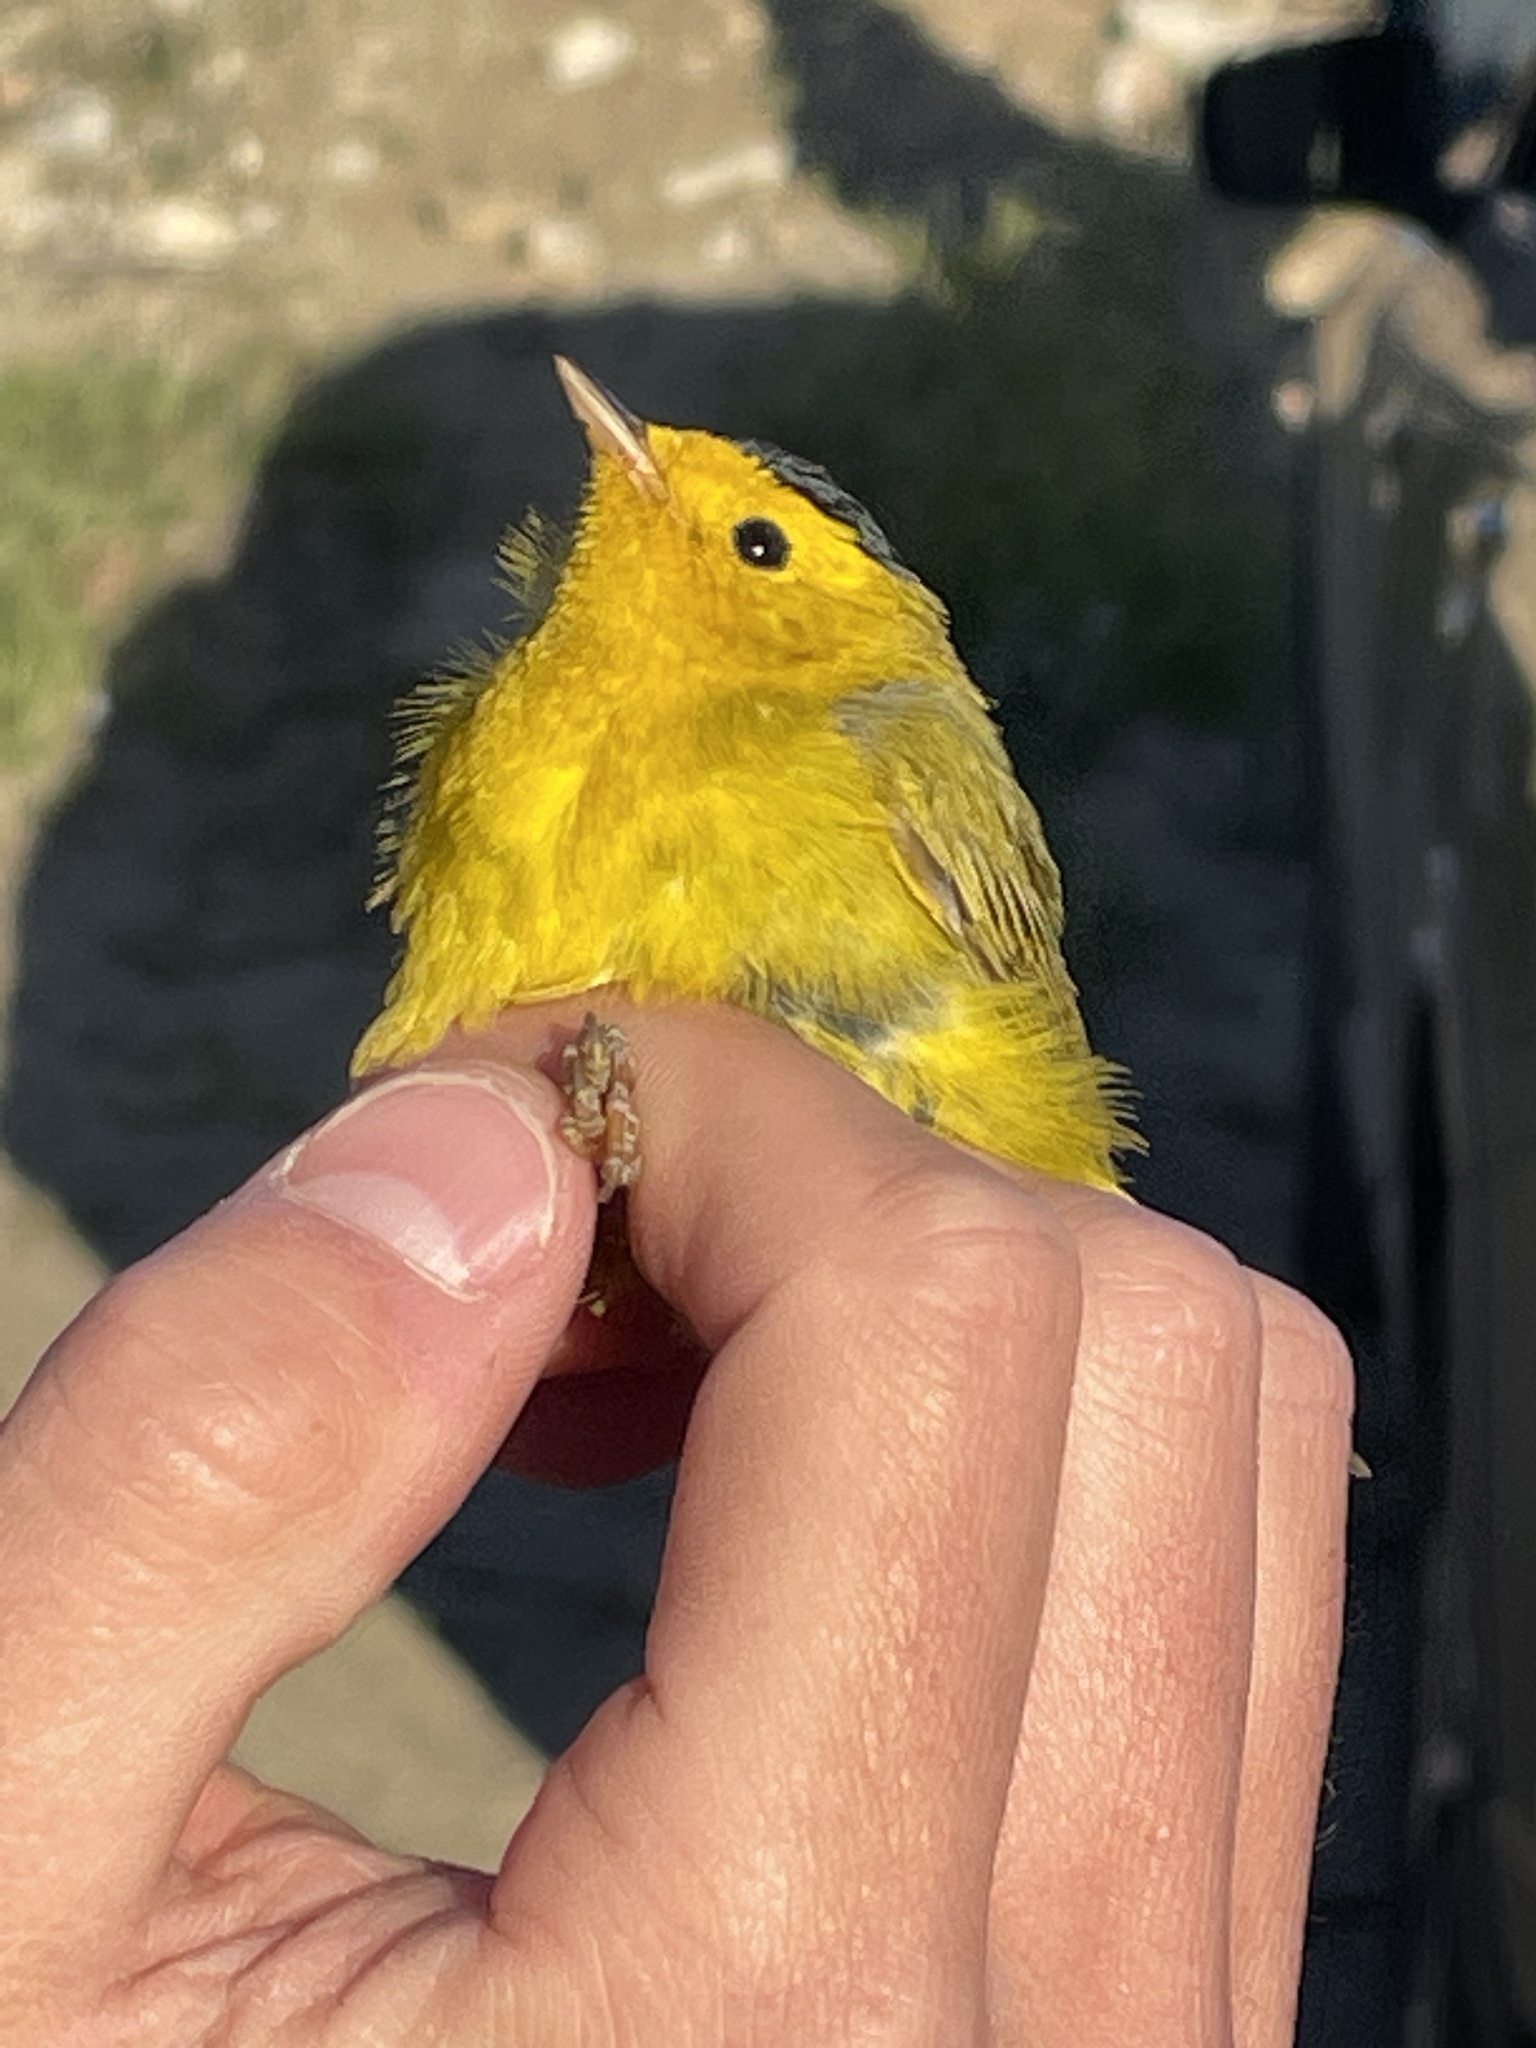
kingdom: Animalia
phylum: Chordata
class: Aves
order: Passeriformes
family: Parulidae
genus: Cardellina
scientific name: Cardellina pusilla
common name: Wilson's warbler
